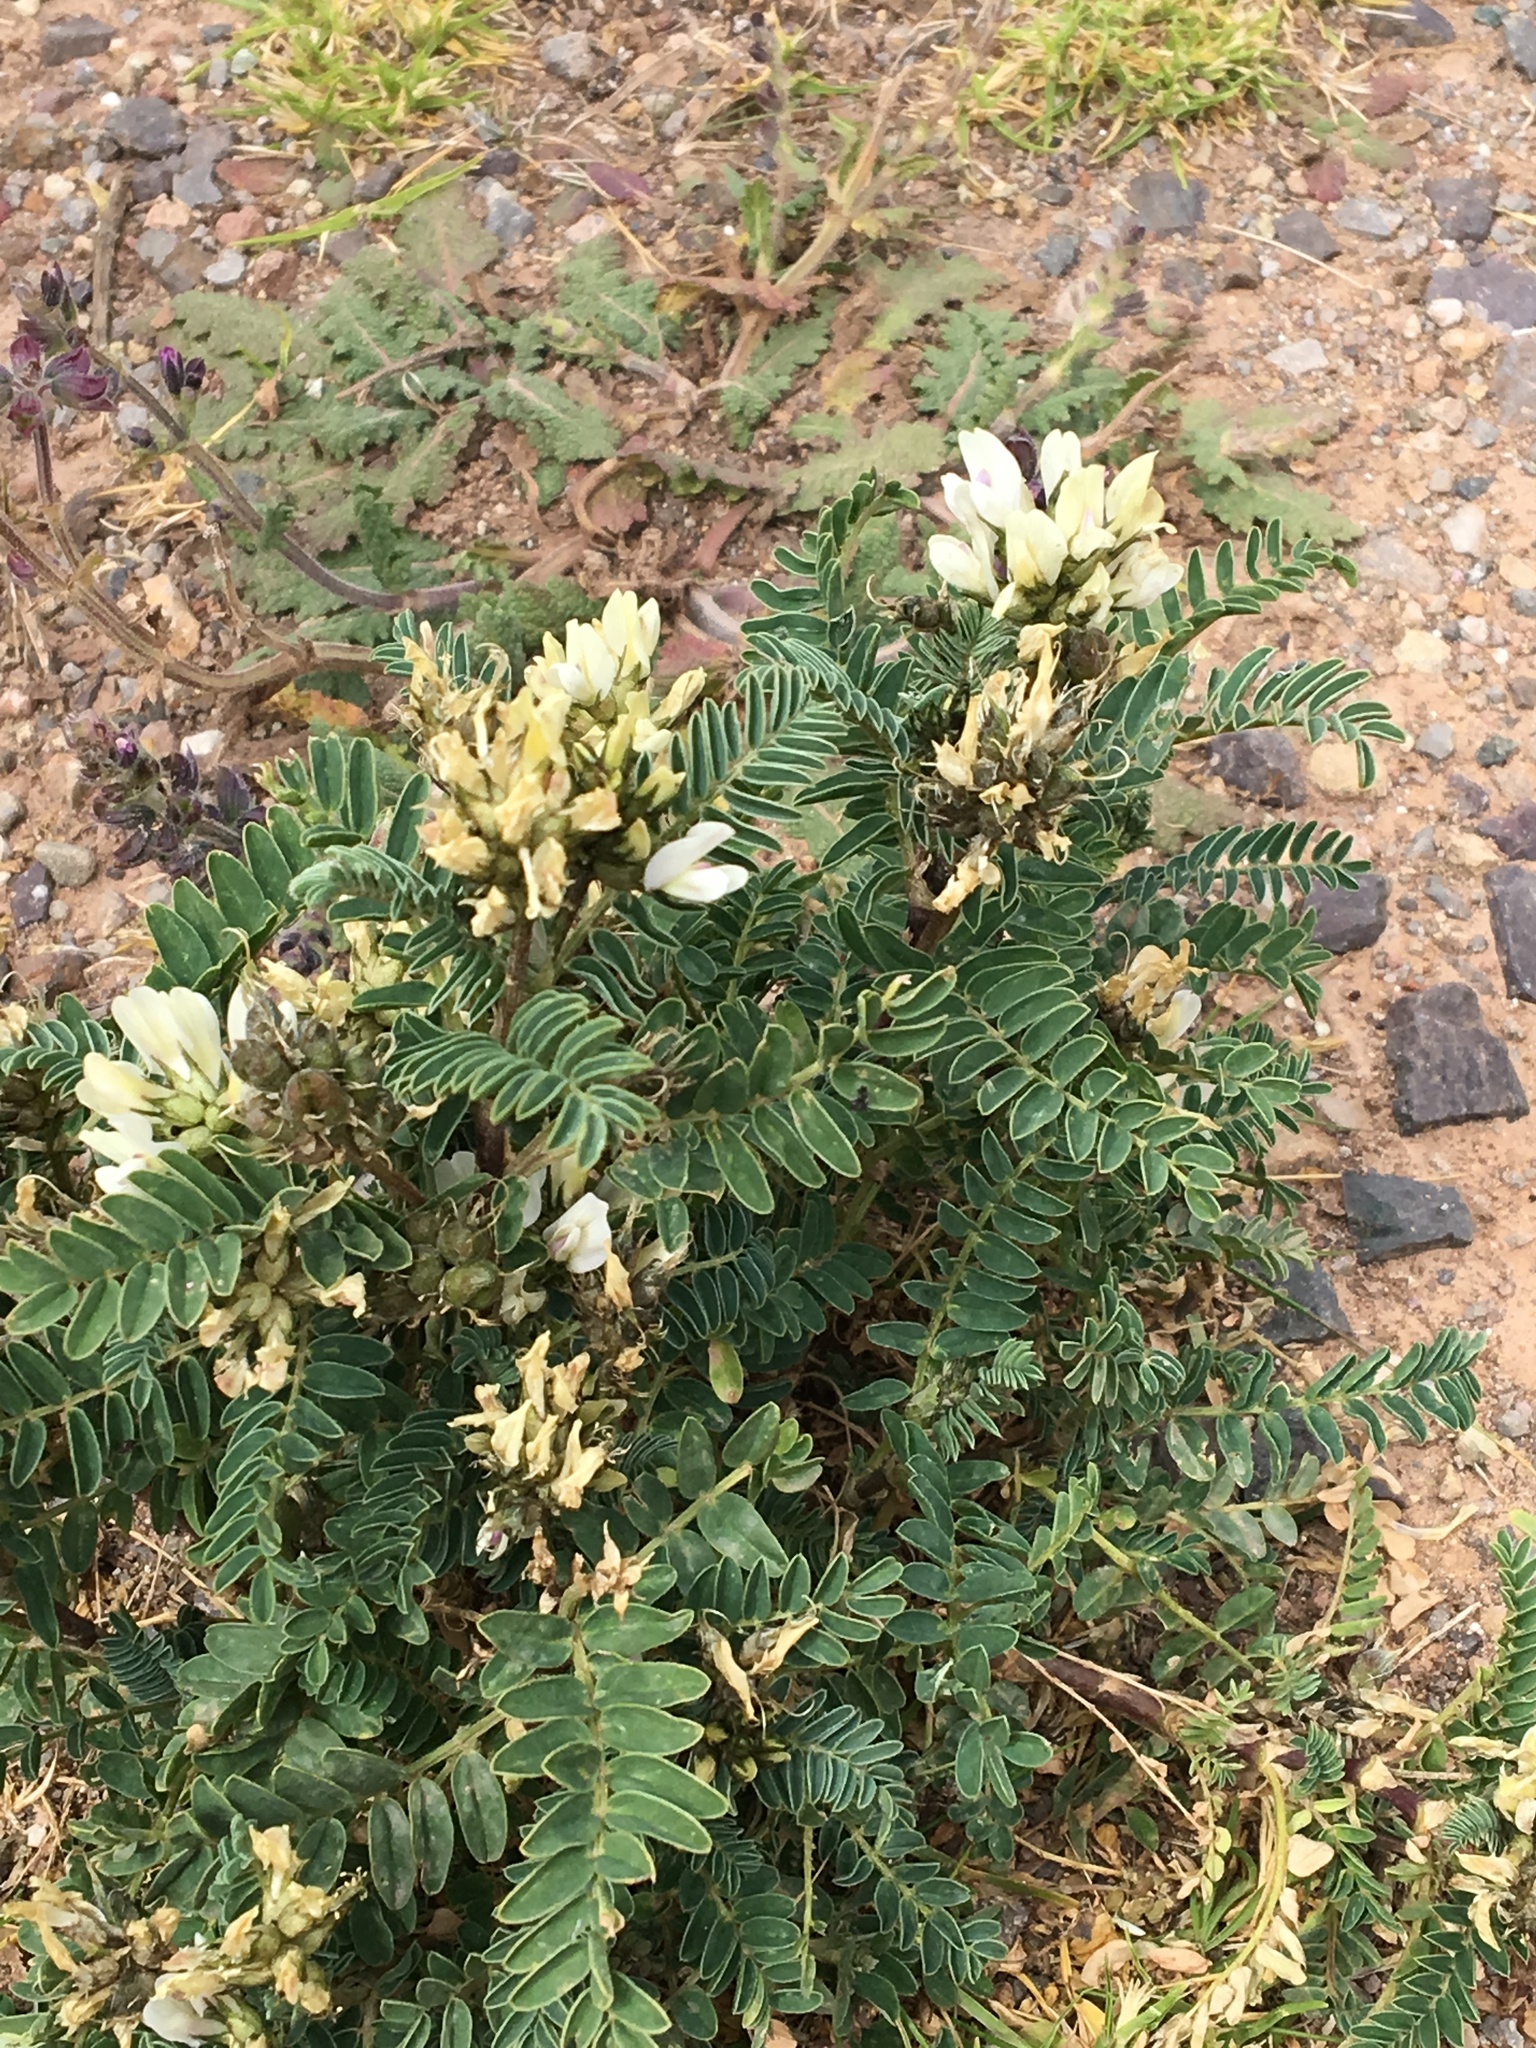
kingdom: Plantae
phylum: Tracheophyta
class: Magnoliopsida
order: Fabales
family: Fabaceae
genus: Astragalus
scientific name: Astragalus garbancillo
